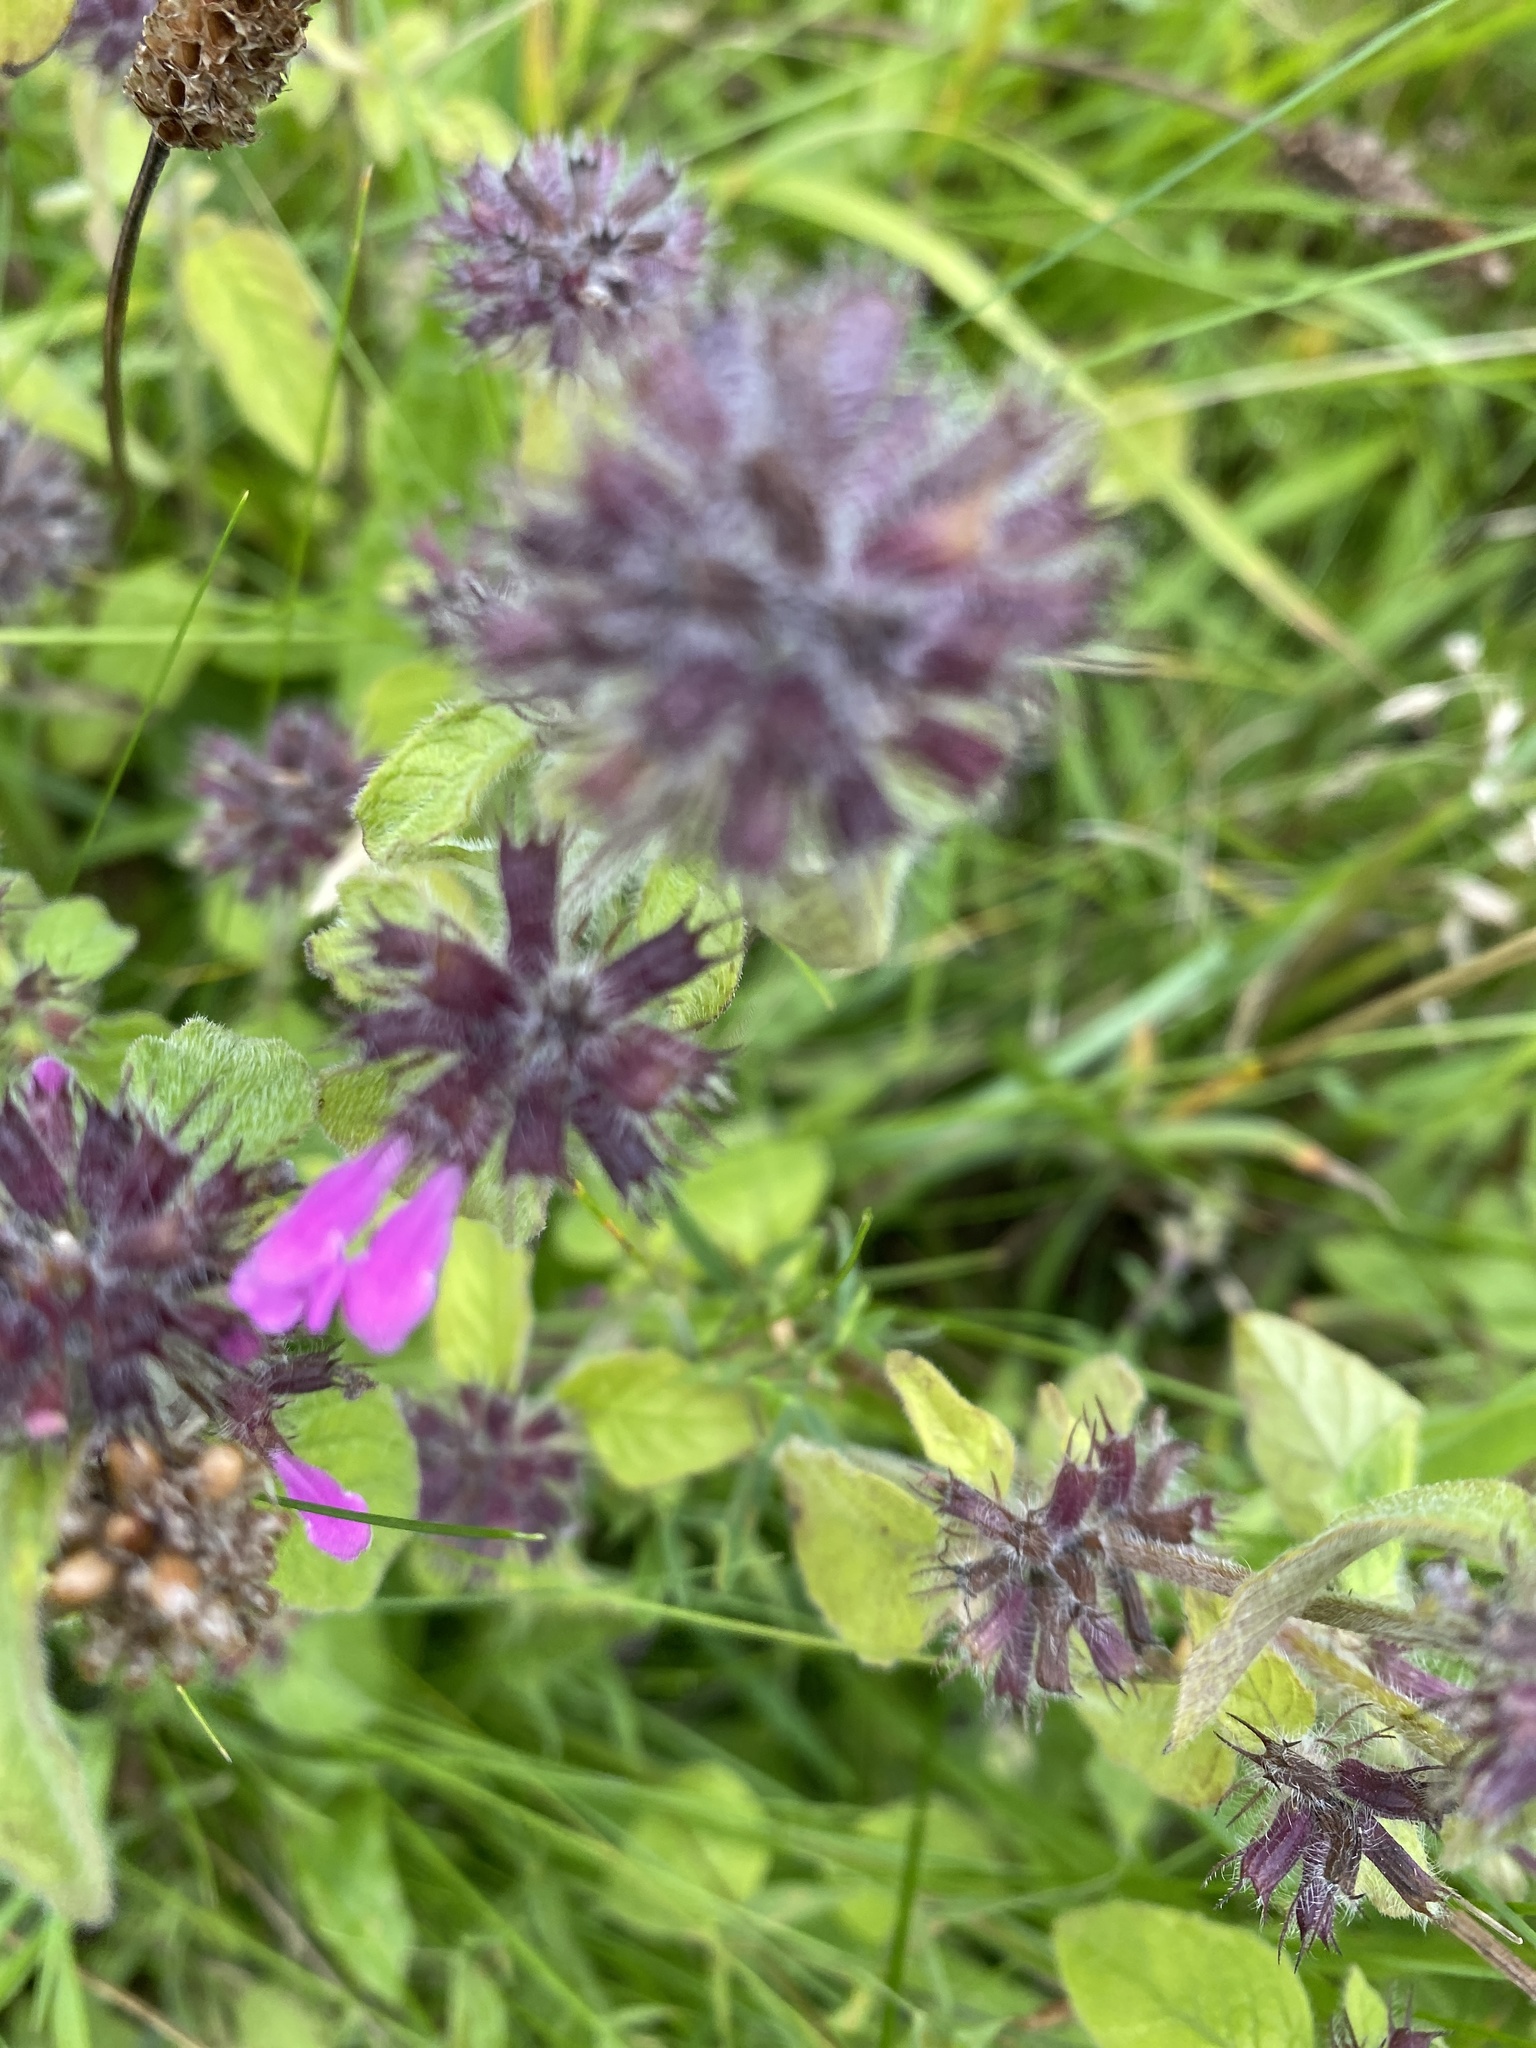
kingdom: Plantae
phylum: Tracheophyta
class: Magnoliopsida
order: Lamiales
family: Lamiaceae
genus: Clinopodium
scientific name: Clinopodium vulgare
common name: Wild basil
